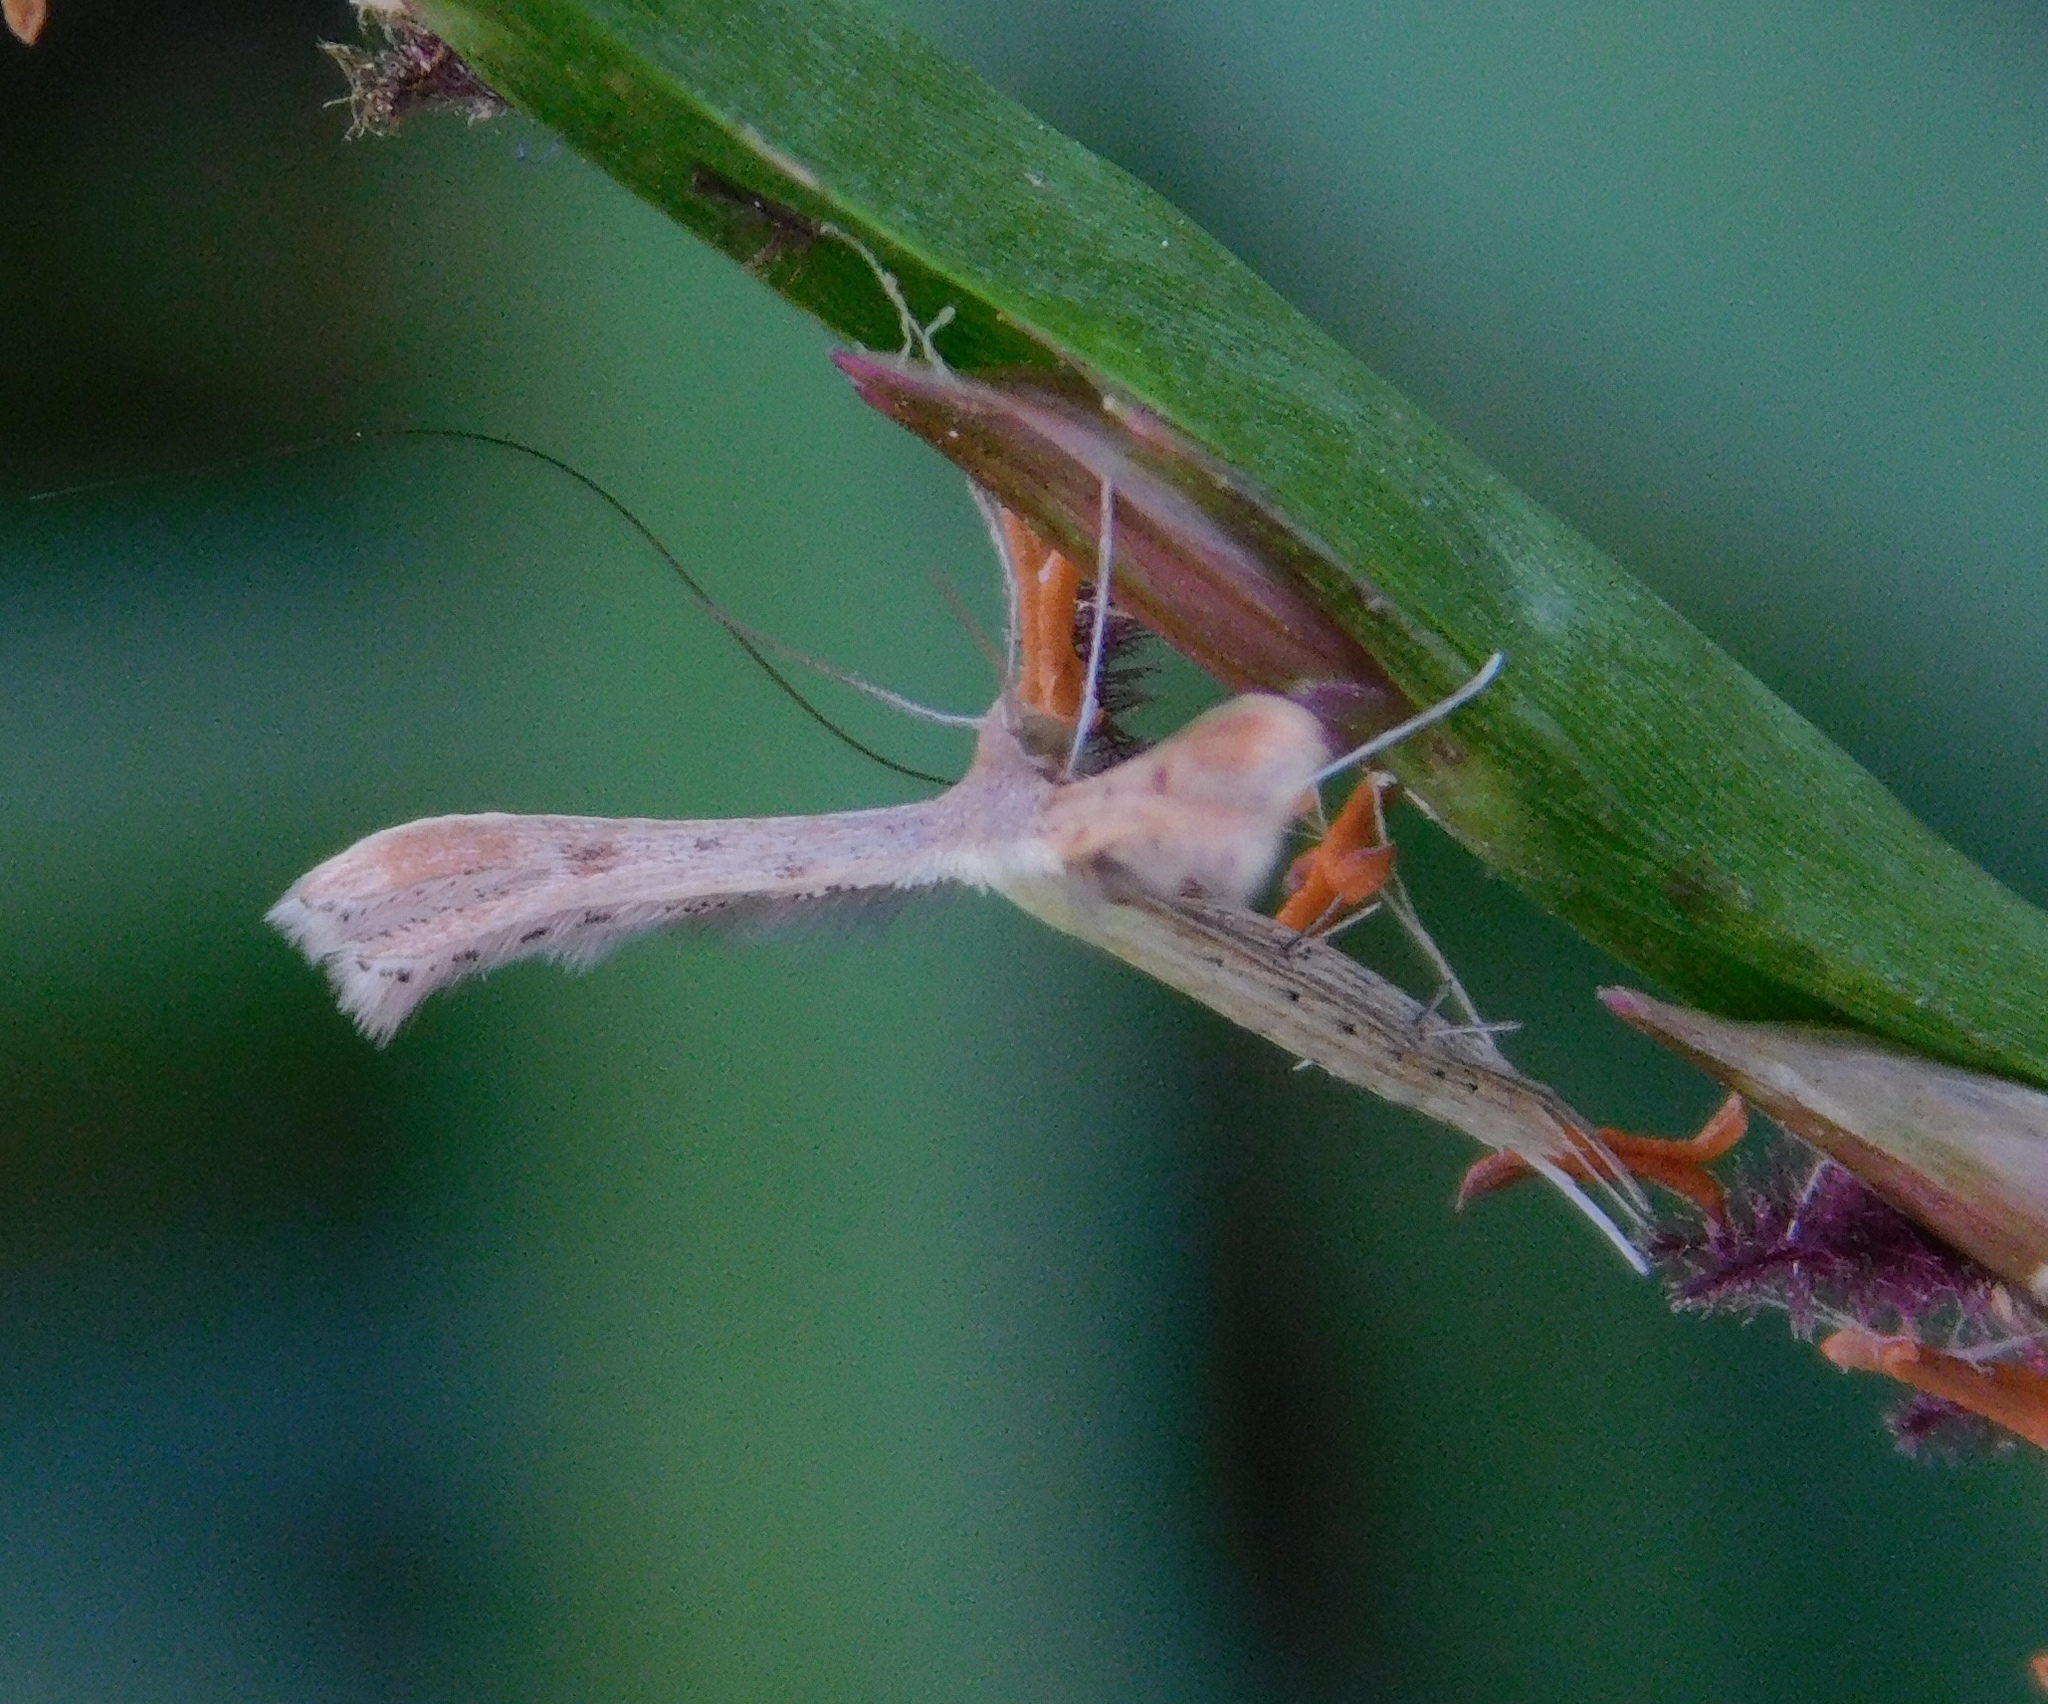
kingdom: Animalia
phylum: Arthropoda
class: Insecta
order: Lepidoptera
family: Pterophoridae
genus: Exelastis
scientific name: Exelastis pumilio
